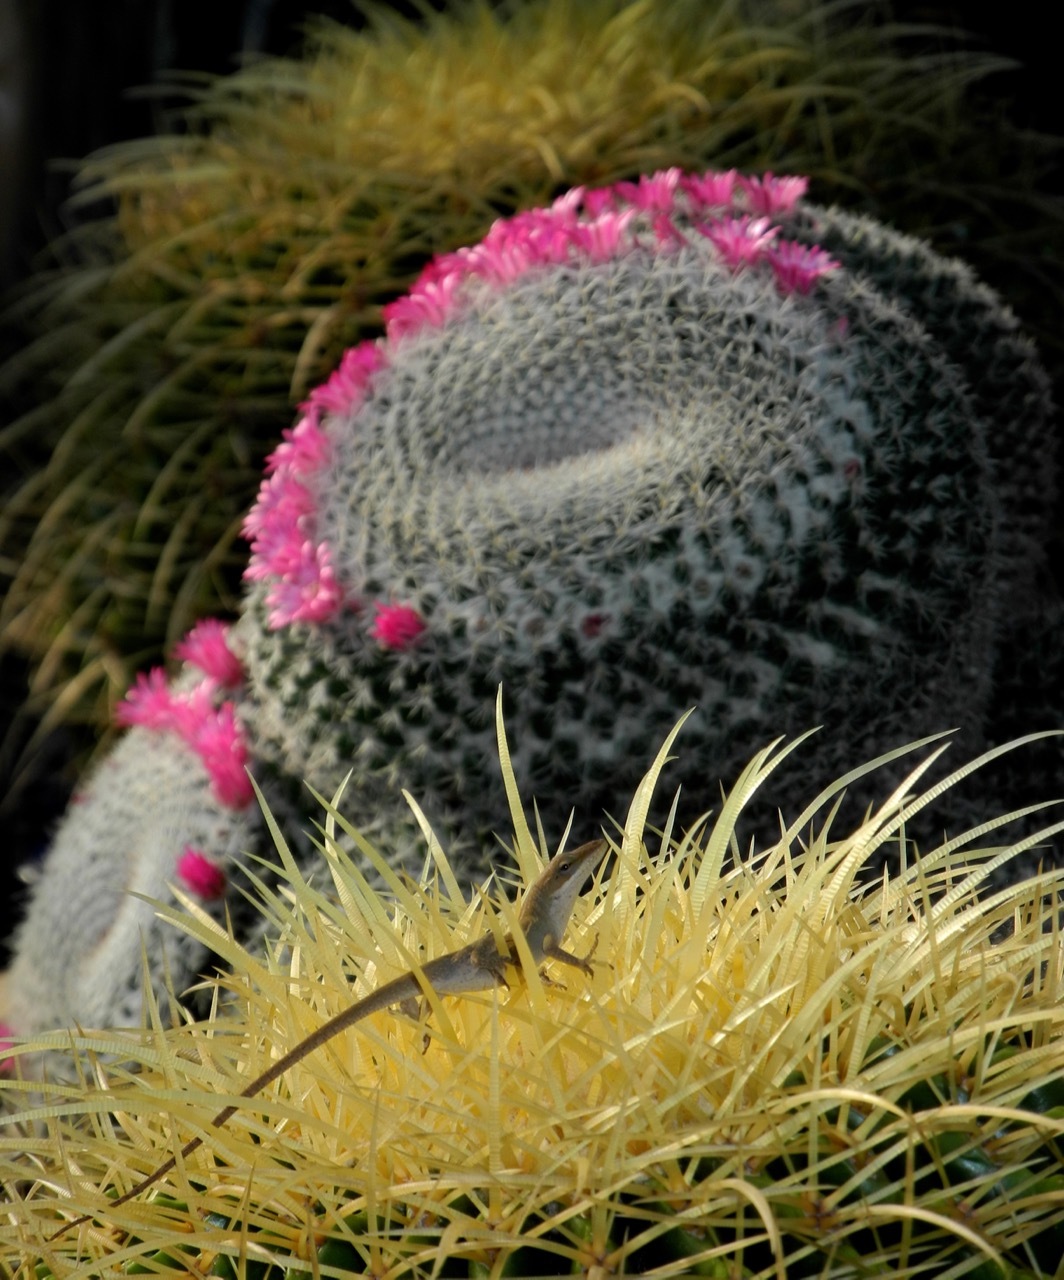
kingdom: Animalia
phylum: Chordata
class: Squamata
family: Dactyloidae
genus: Anolis
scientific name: Anolis carolinensis
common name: Green anole
